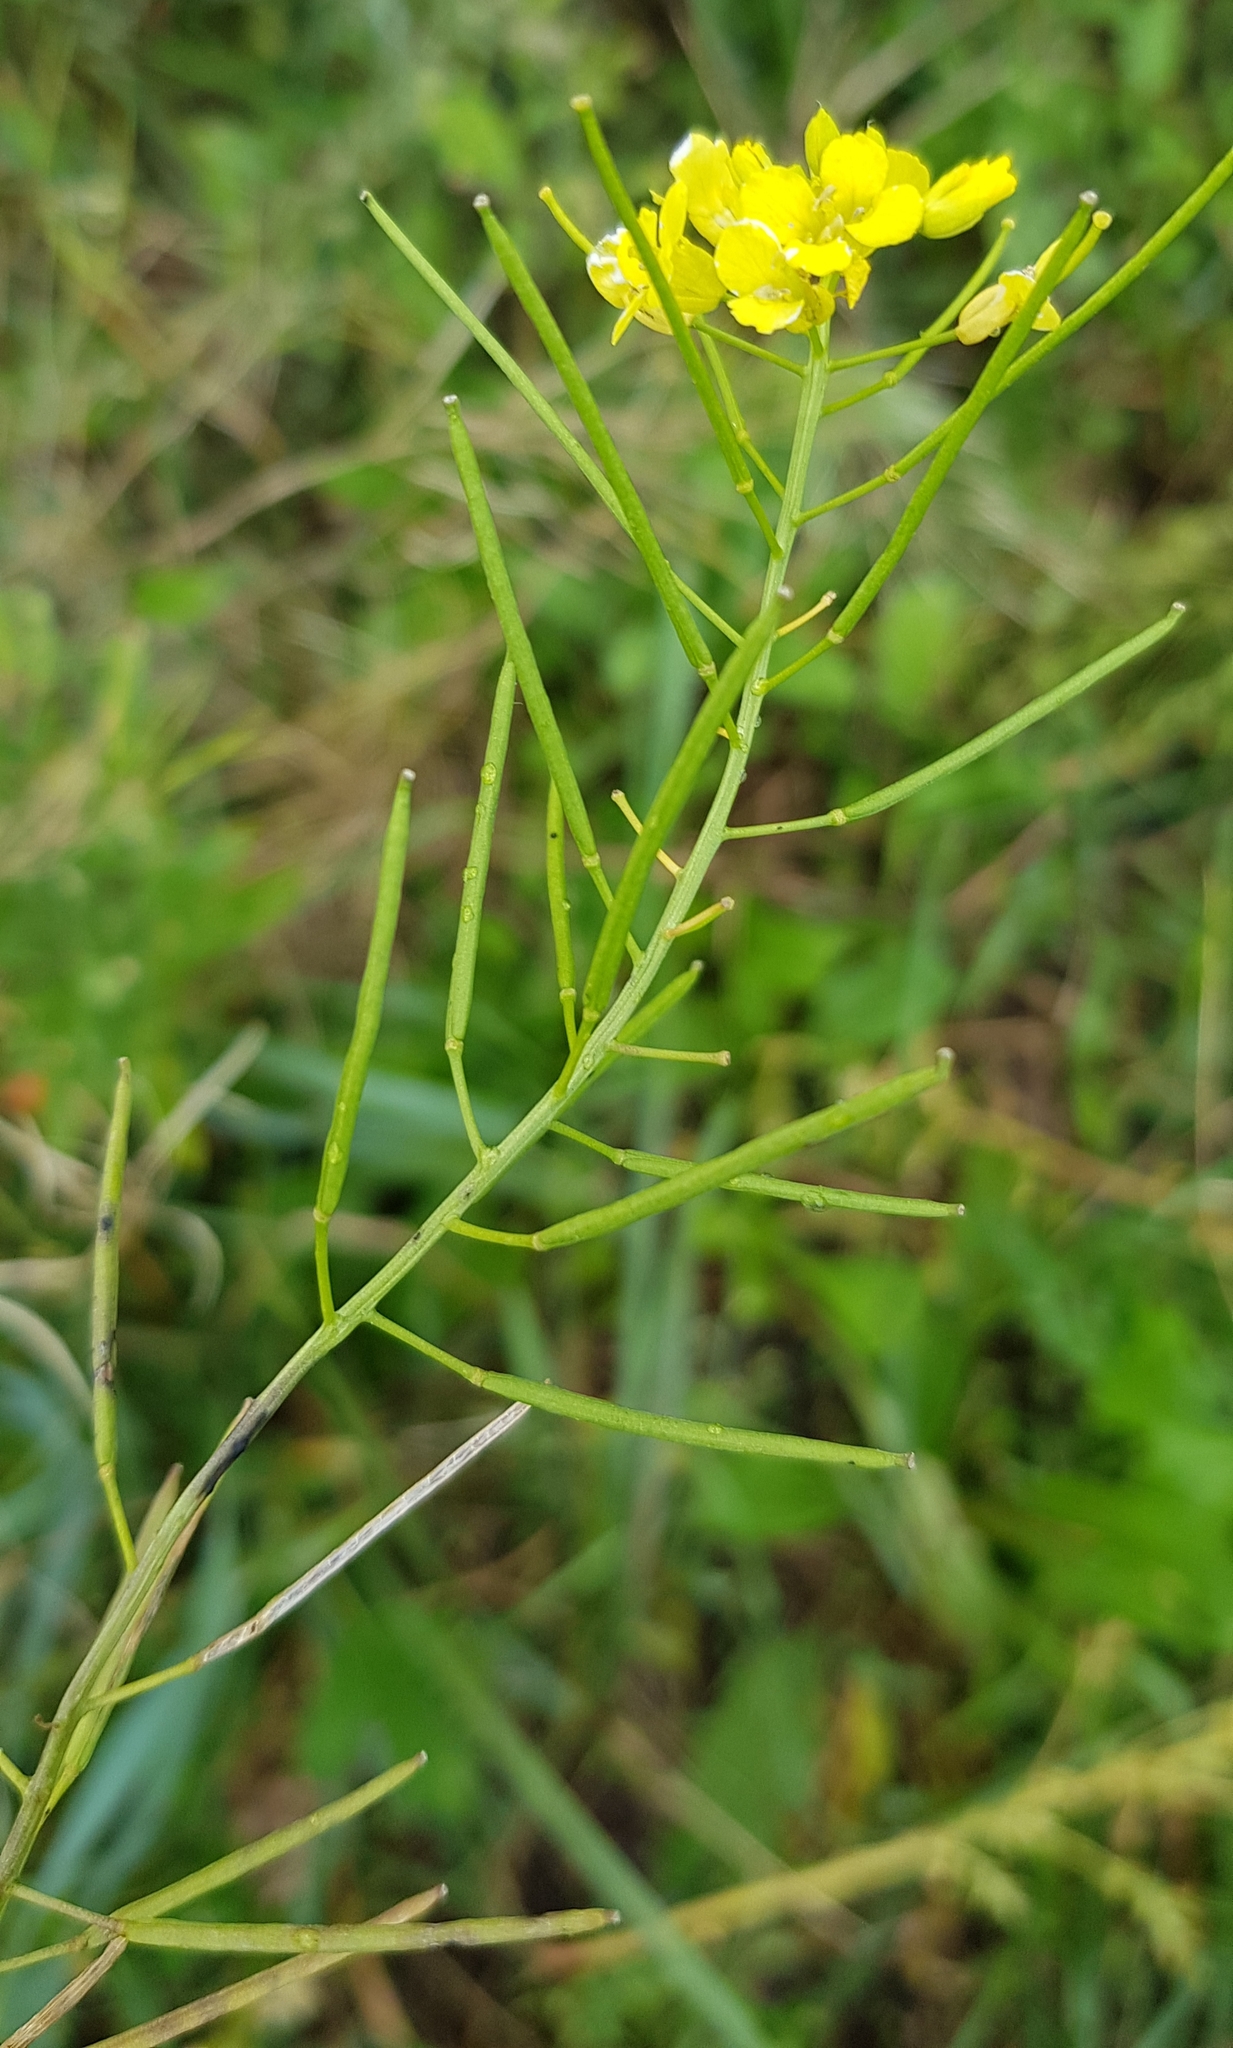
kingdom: Plantae
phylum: Tracheophyta
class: Magnoliopsida
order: Brassicales
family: Brassicaceae
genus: Sisymbrium
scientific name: Sisymbrium loeselii
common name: False london-rocket
